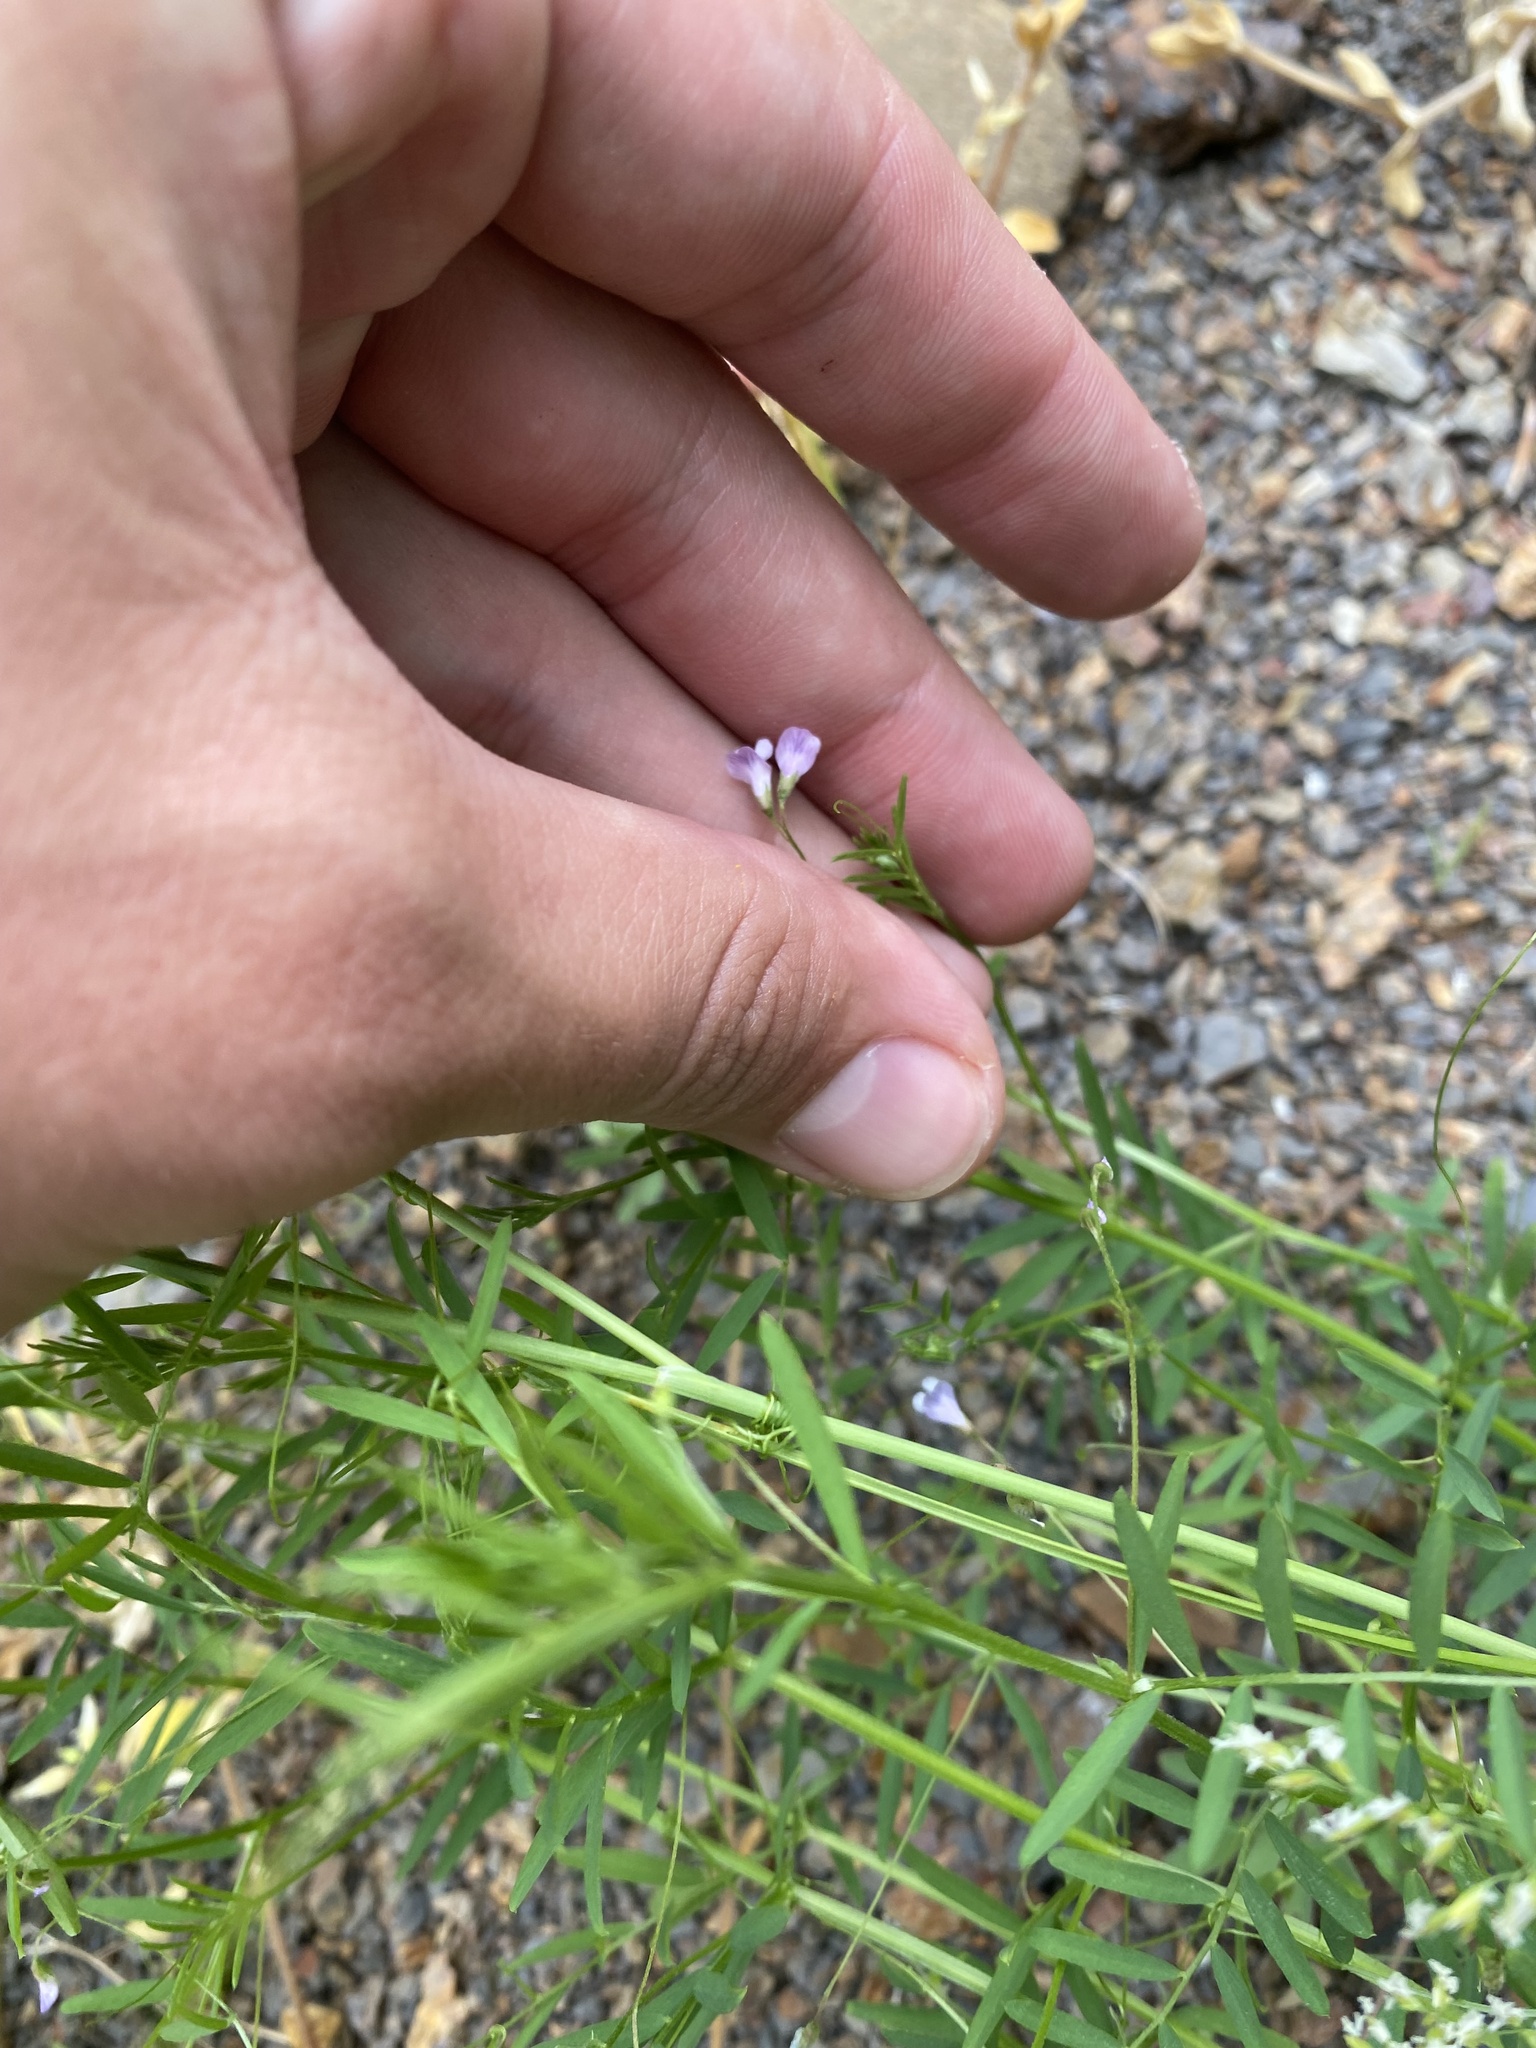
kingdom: Plantae
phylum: Tracheophyta
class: Magnoliopsida
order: Fabales
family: Fabaceae
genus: Vicia
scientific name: Vicia tetrasperma
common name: Smooth tare
